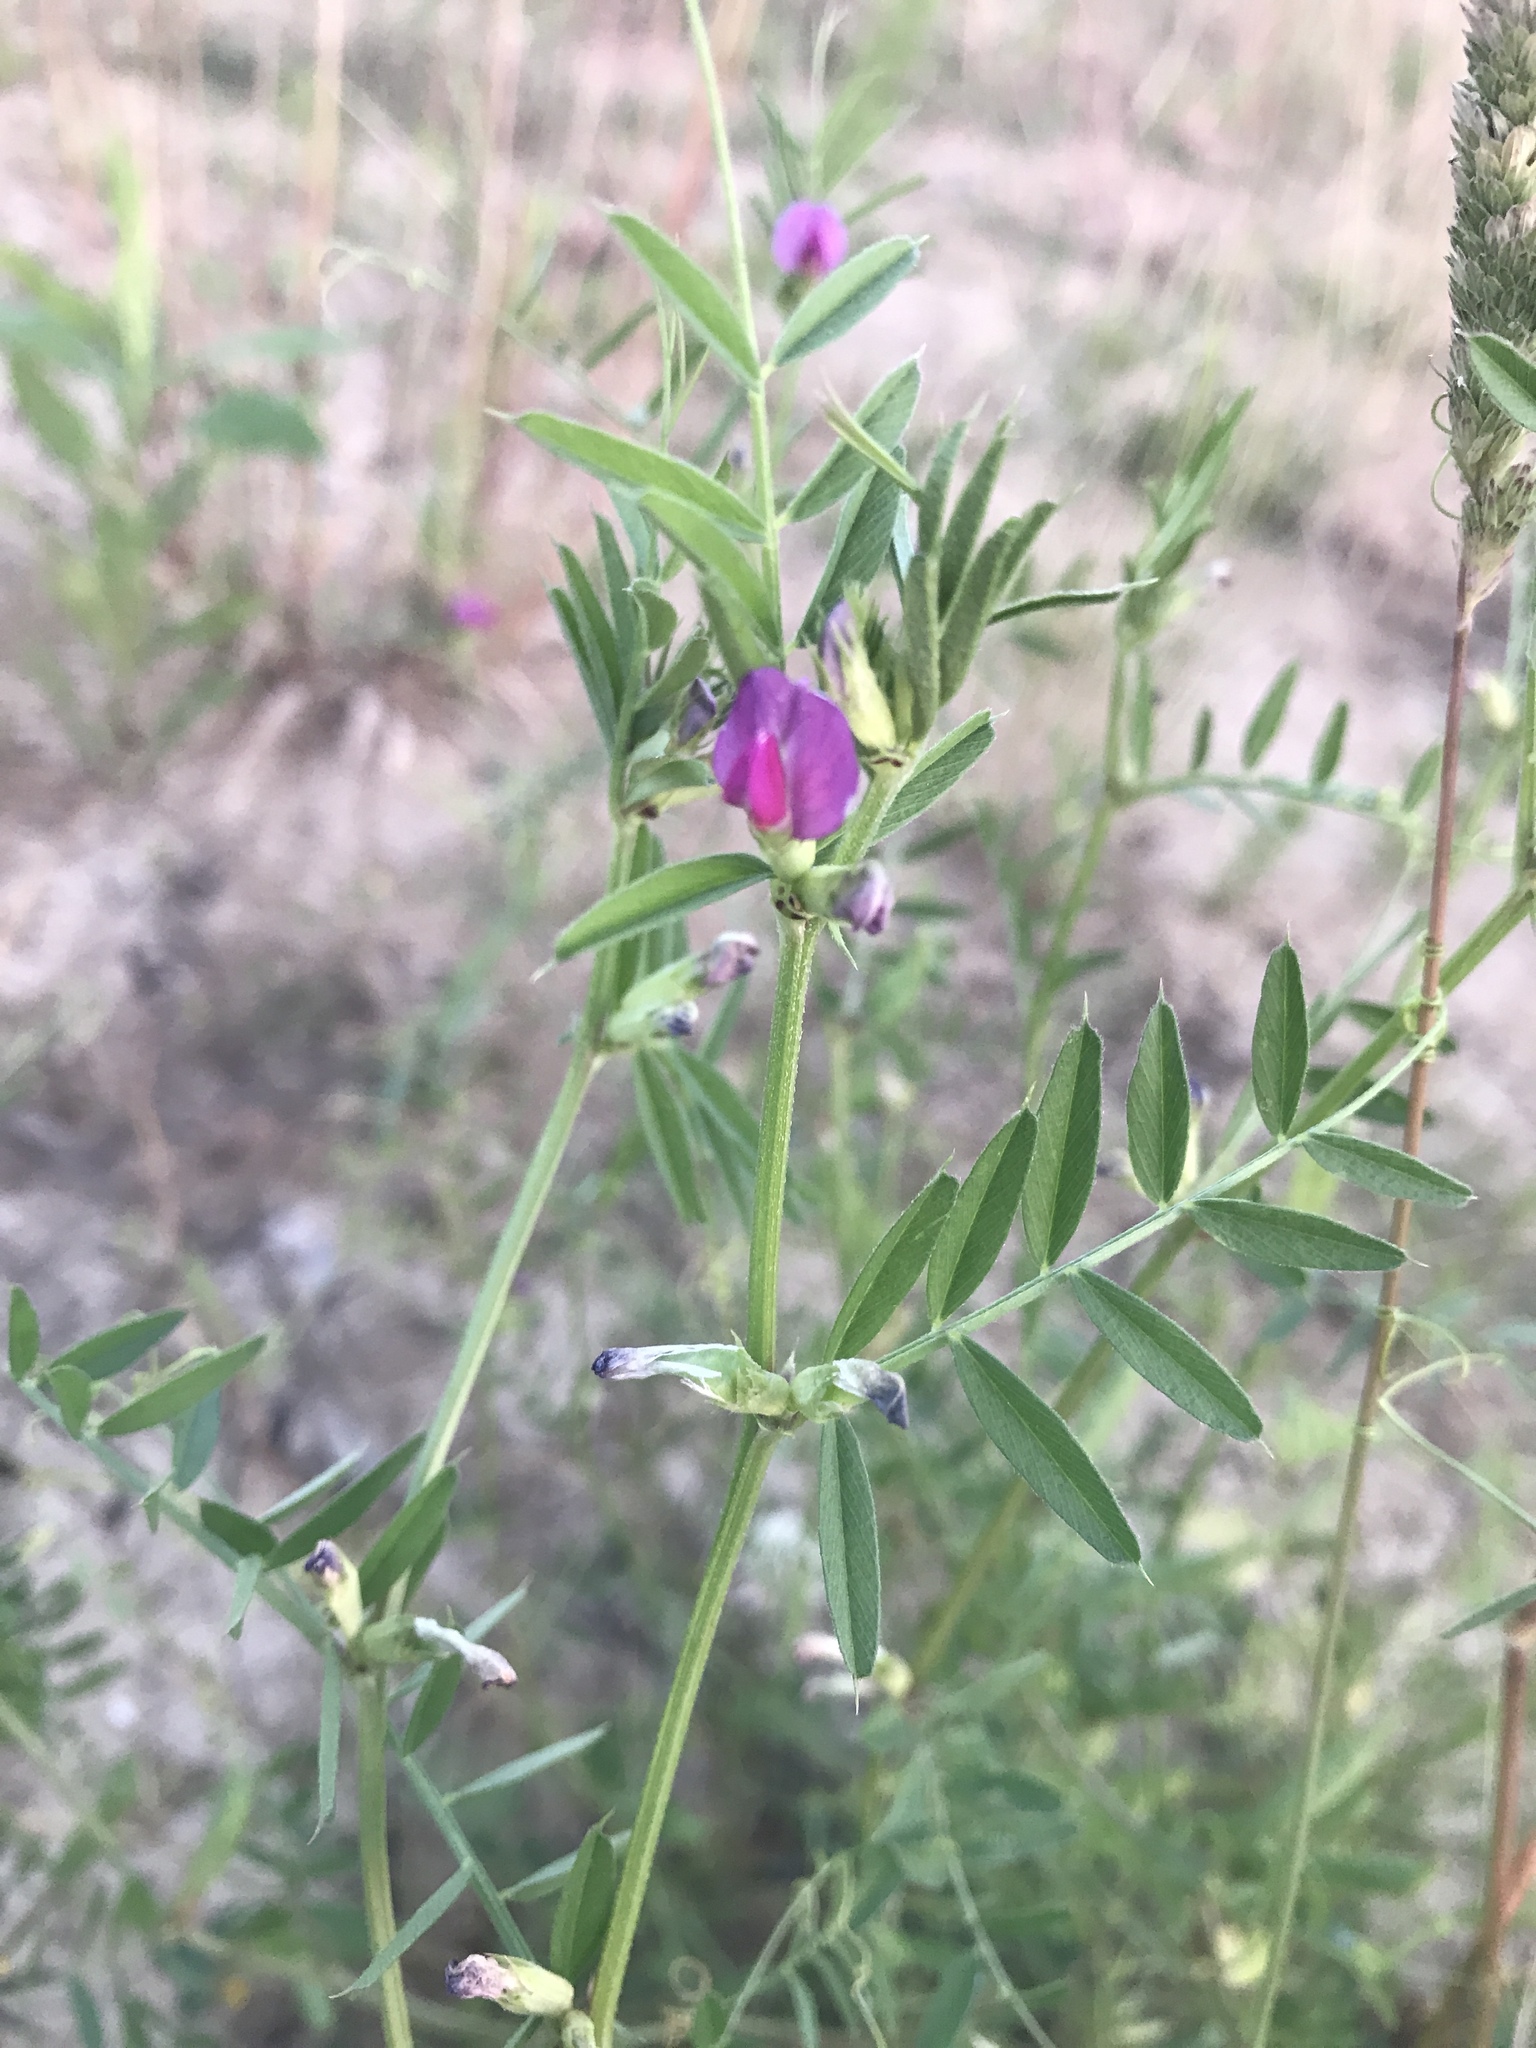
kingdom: Plantae
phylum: Tracheophyta
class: Magnoliopsida
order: Fabales
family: Fabaceae
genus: Vicia
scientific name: Vicia sativa
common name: Garden vetch
